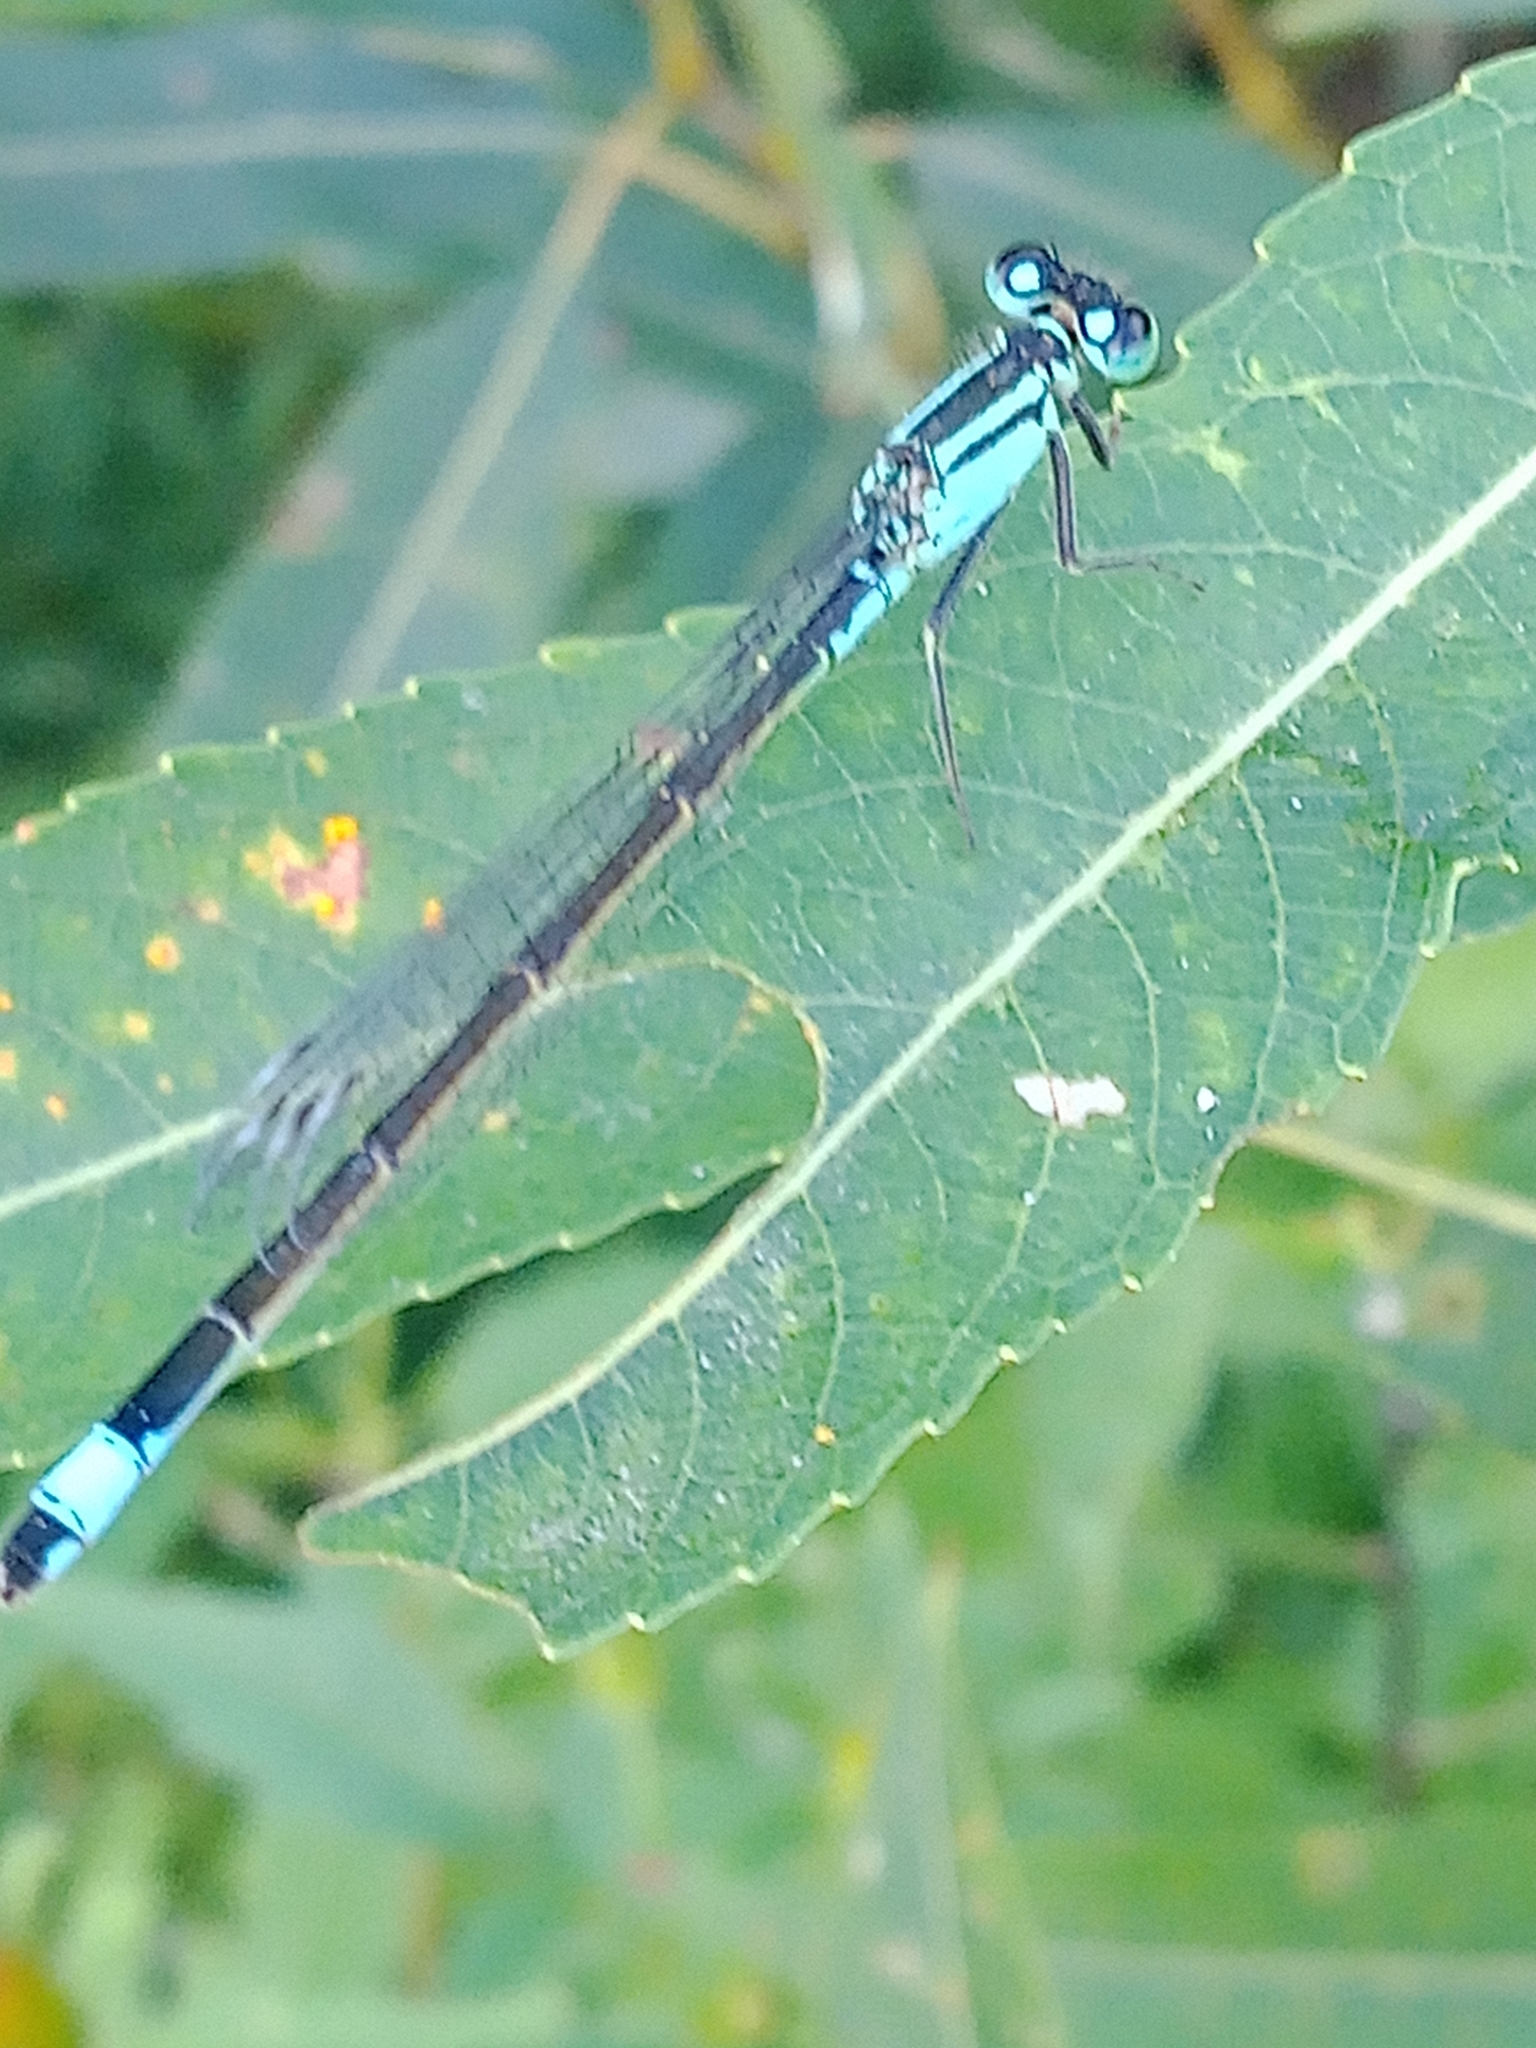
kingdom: Animalia
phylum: Arthropoda
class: Insecta
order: Odonata
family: Coenagrionidae
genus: Ischnura
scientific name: Ischnura elegans
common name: Blue-tailed damselfly
